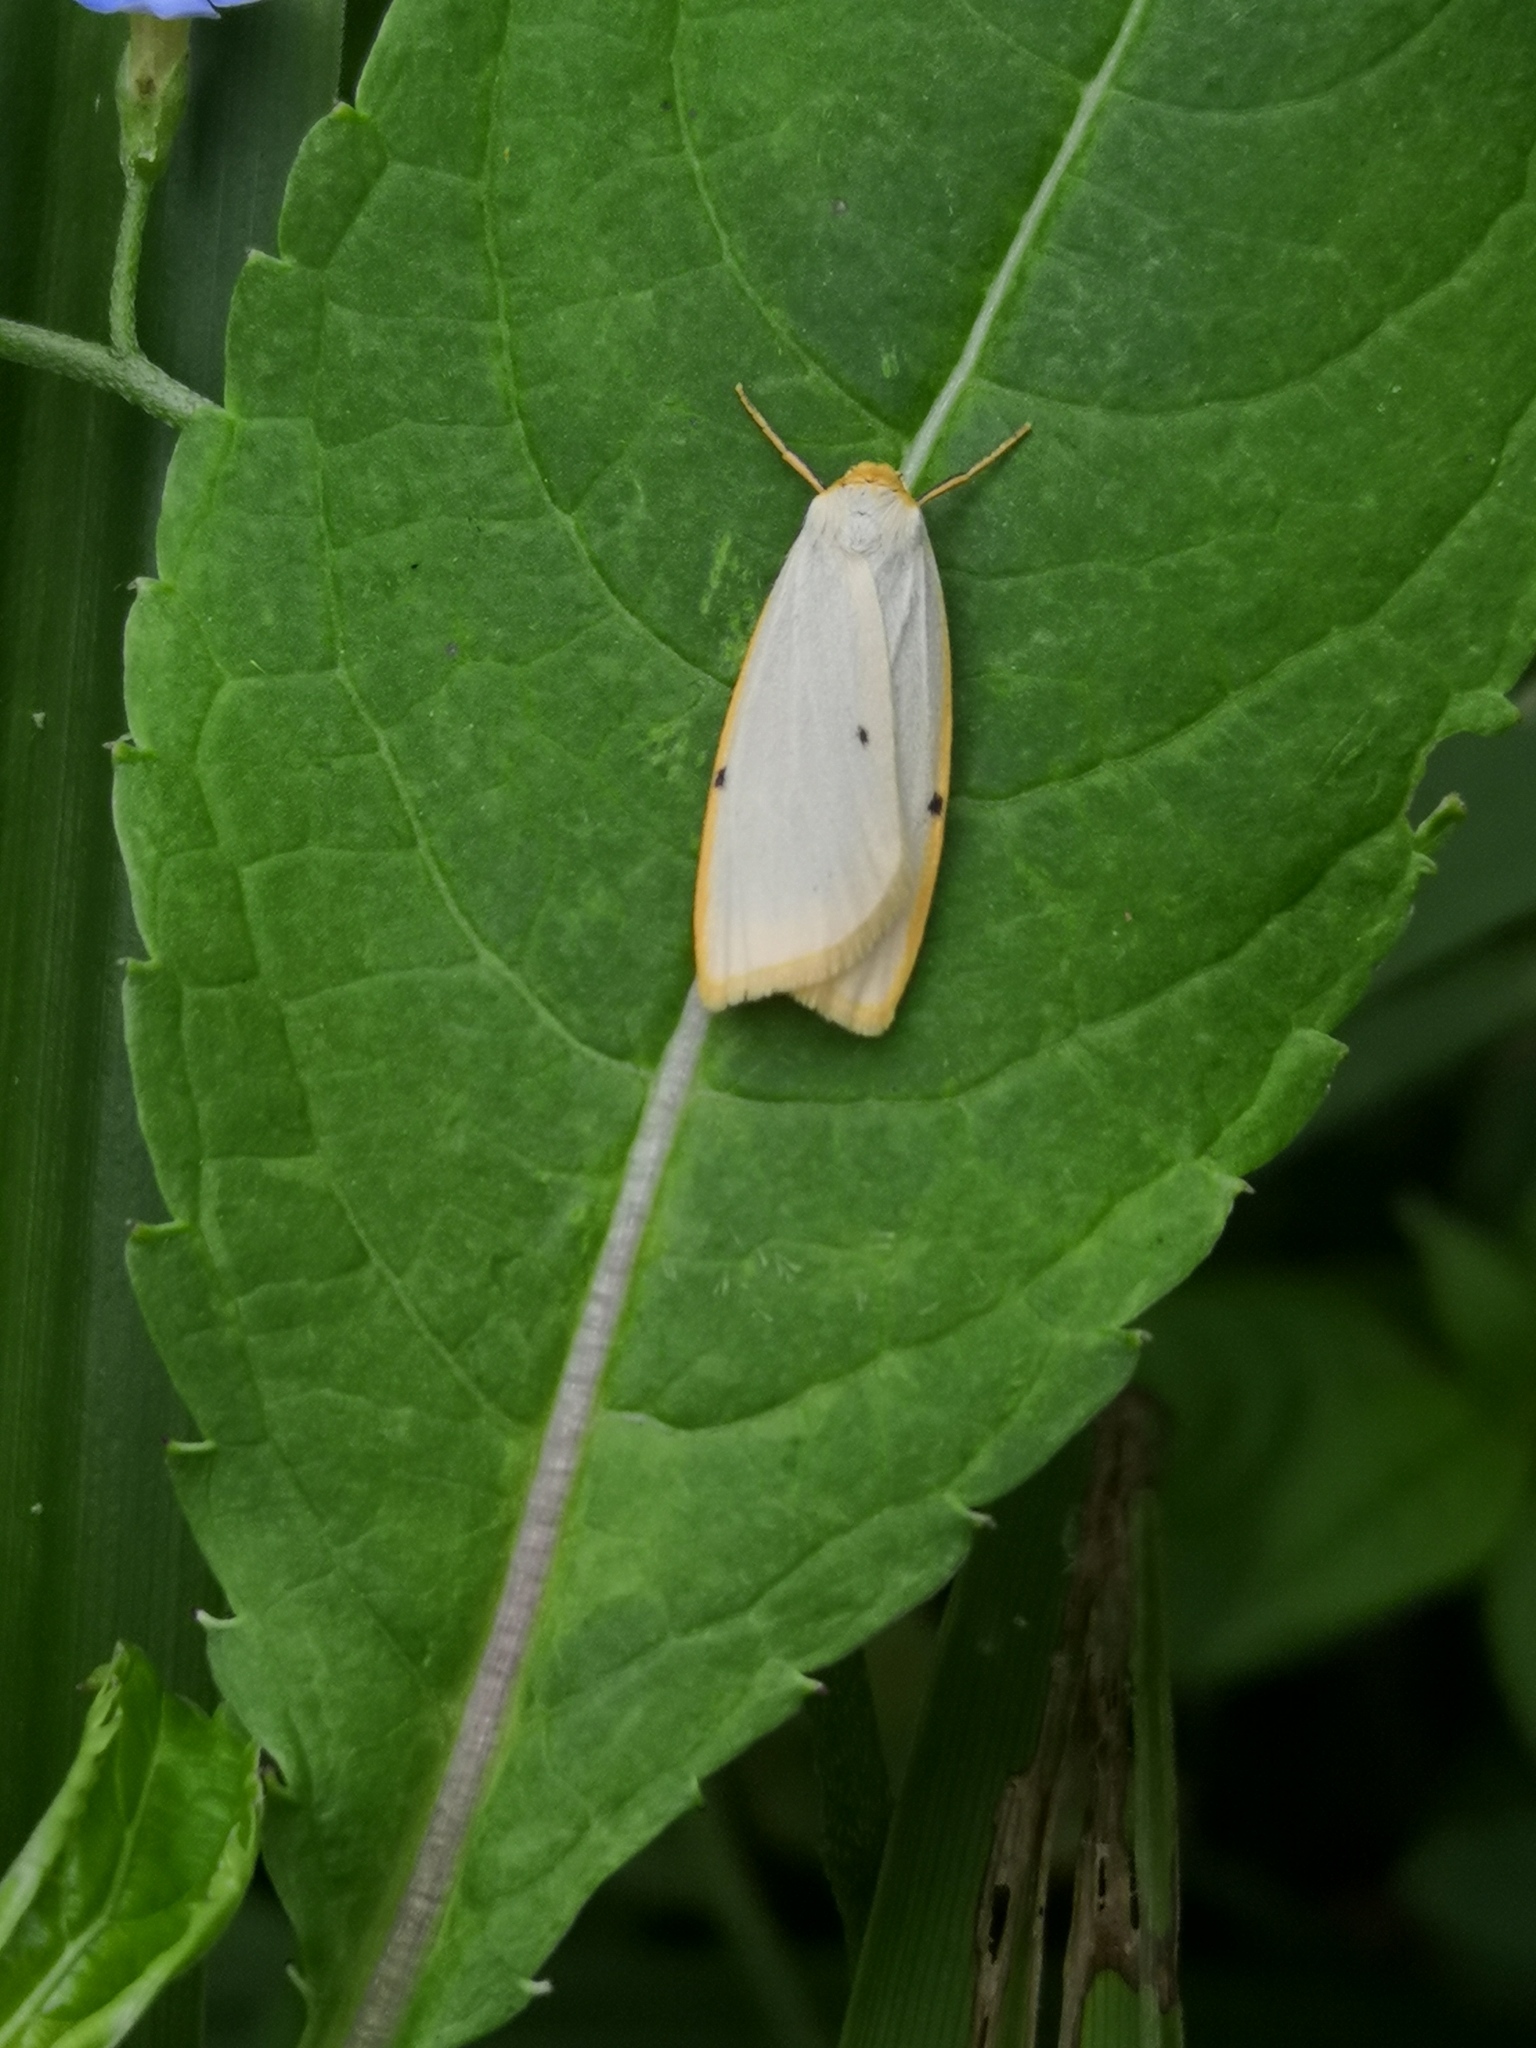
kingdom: Animalia
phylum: Arthropoda
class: Insecta
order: Lepidoptera
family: Erebidae
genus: Cybosia
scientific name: Cybosia mesomella
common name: Four-dotted footman
